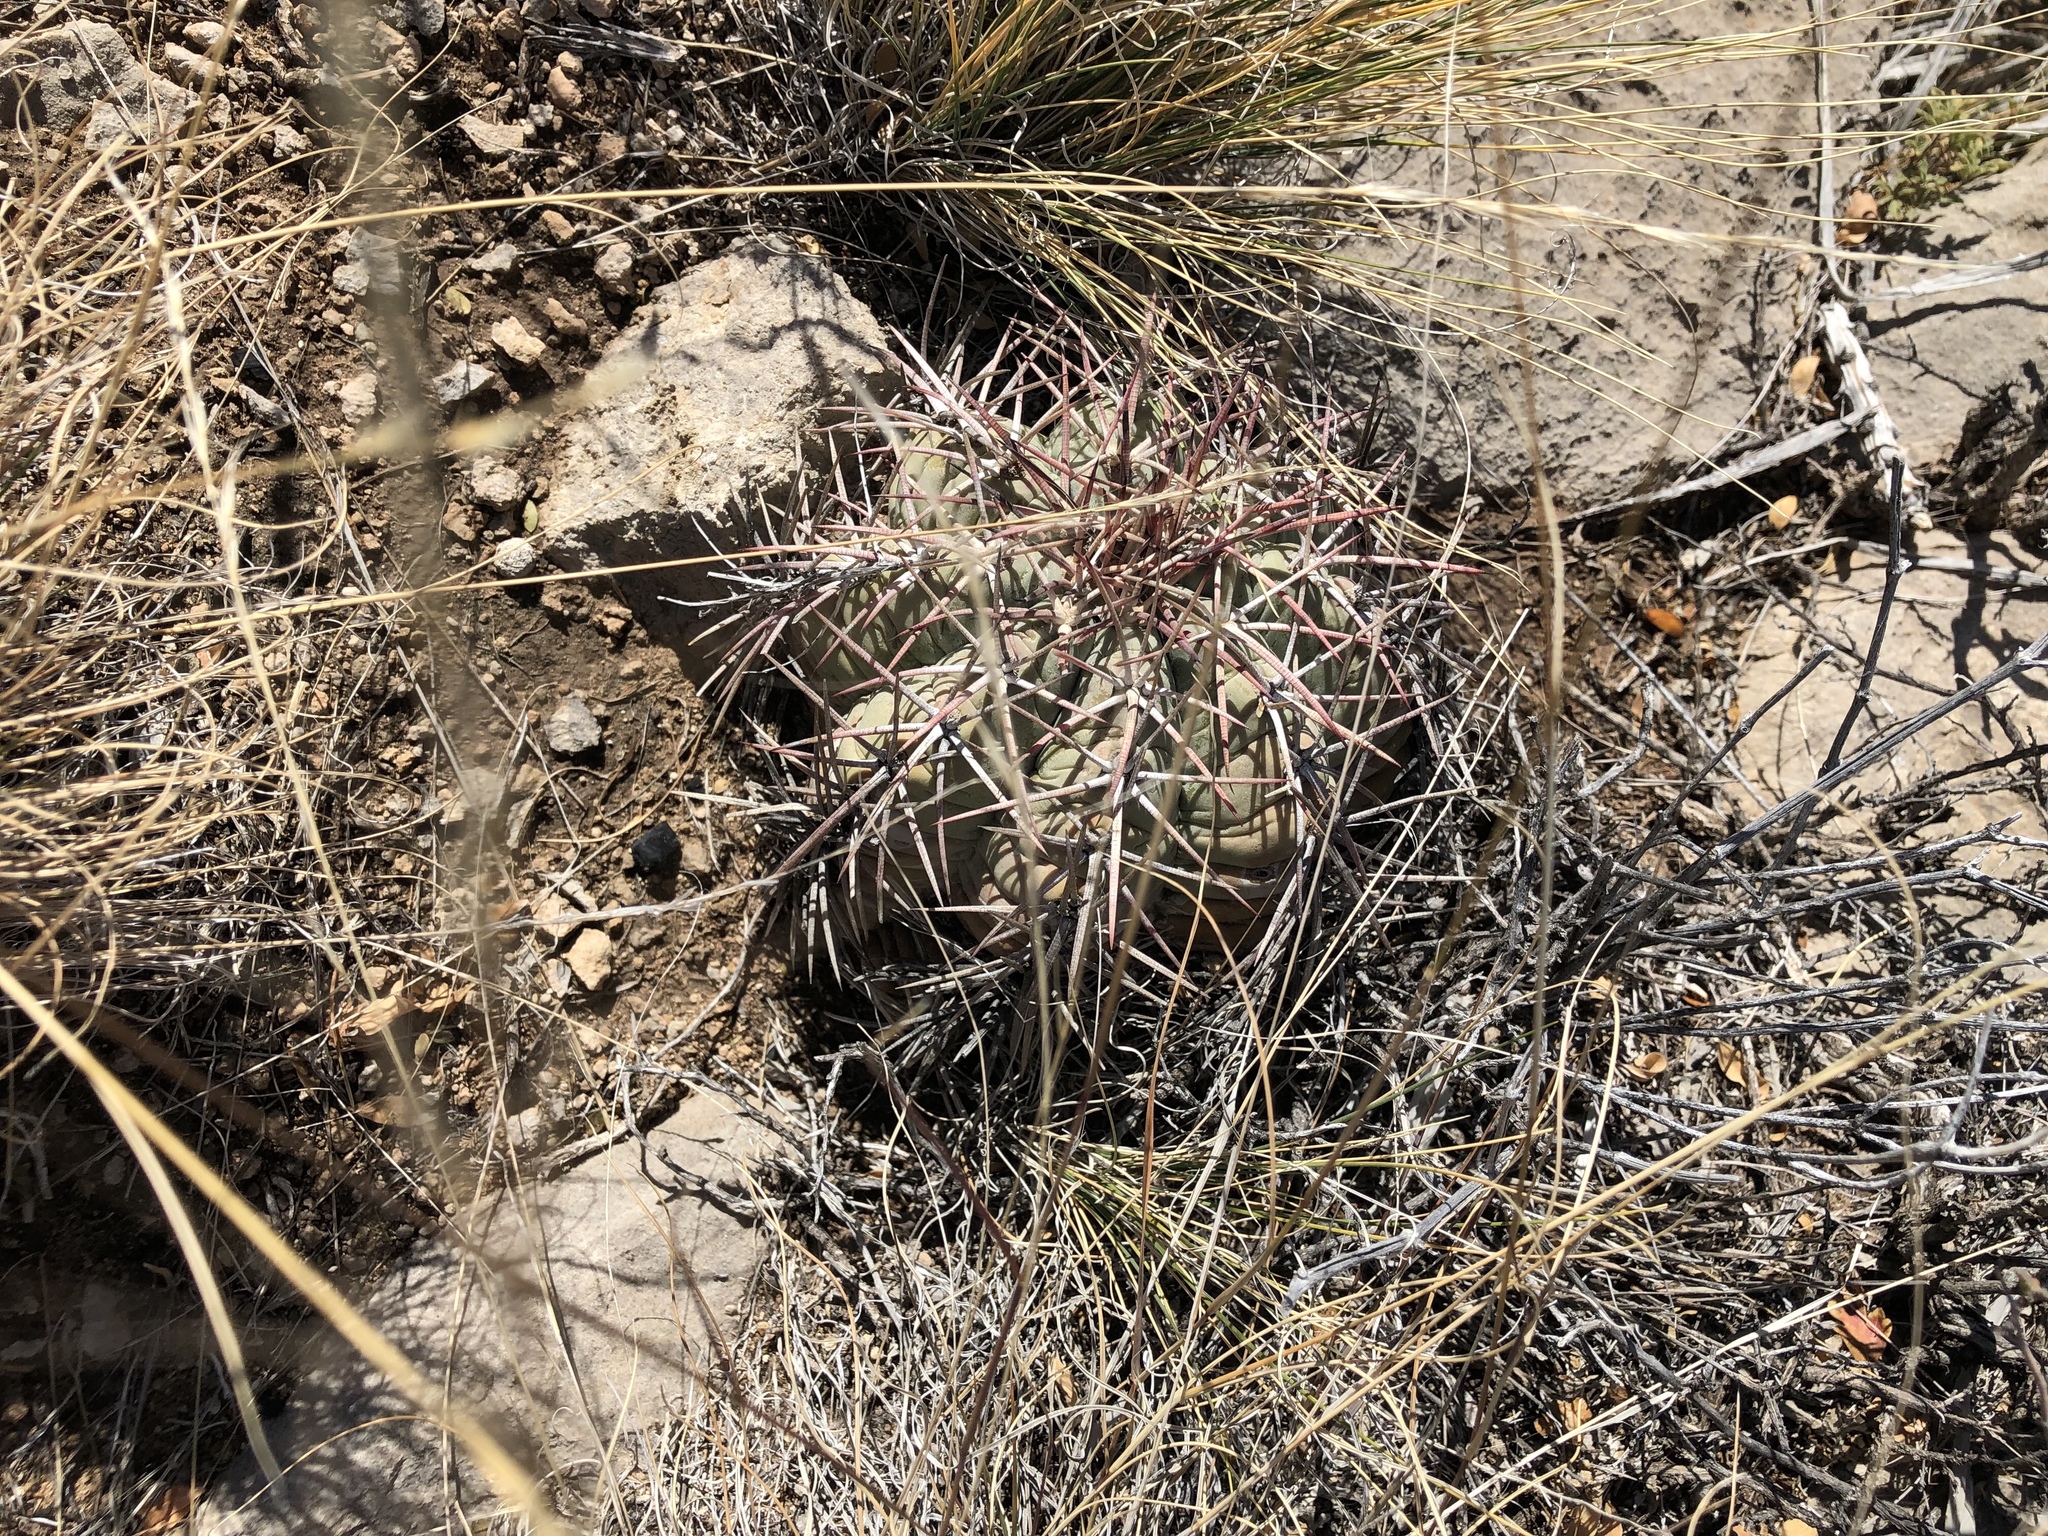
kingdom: Plantae
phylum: Tracheophyta
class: Magnoliopsida
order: Caryophyllales
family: Cactaceae
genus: Echinocactus
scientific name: Echinocactus horizonthalonius
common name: Devilshead
